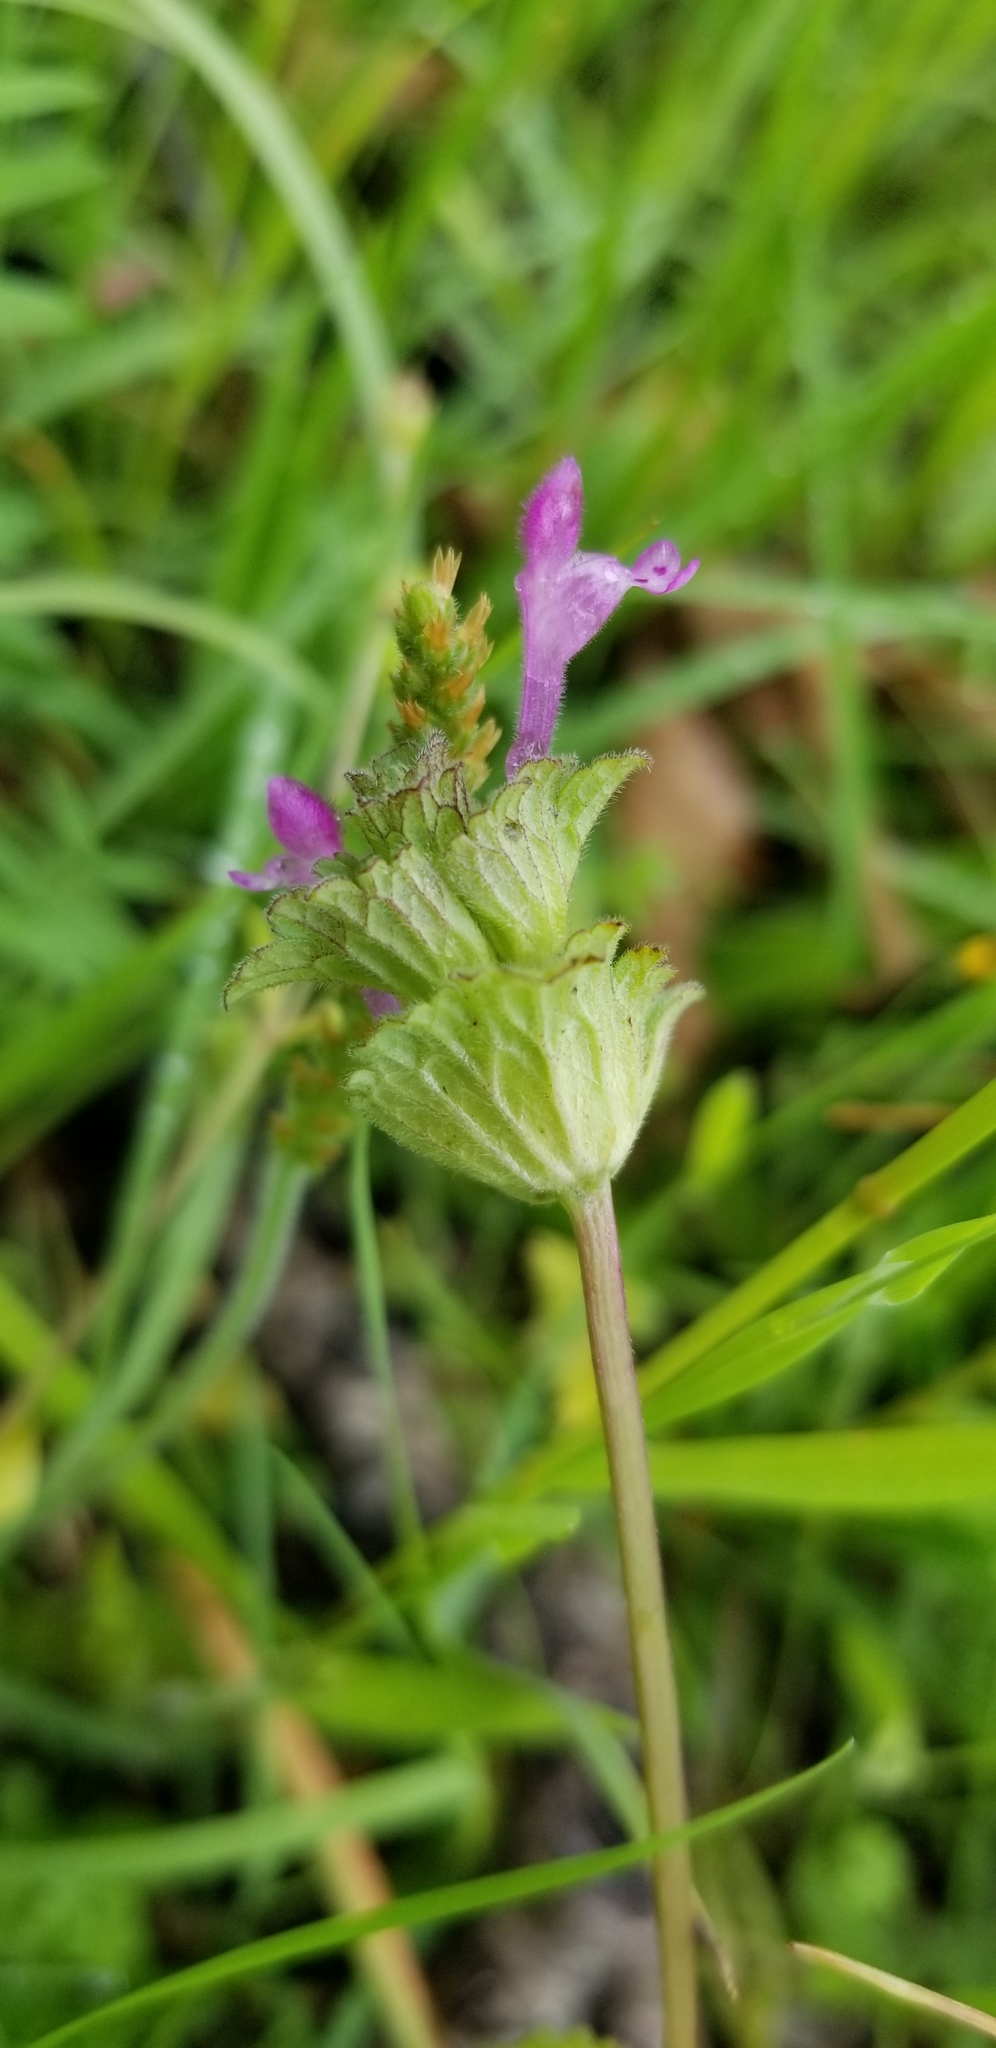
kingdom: Plantae
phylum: Tracheophyta
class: Magnoliopsida
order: Lamiales
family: Lamiaceae
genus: Lamium
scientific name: Lamium amplexicaule
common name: Henbit dead-nettle
